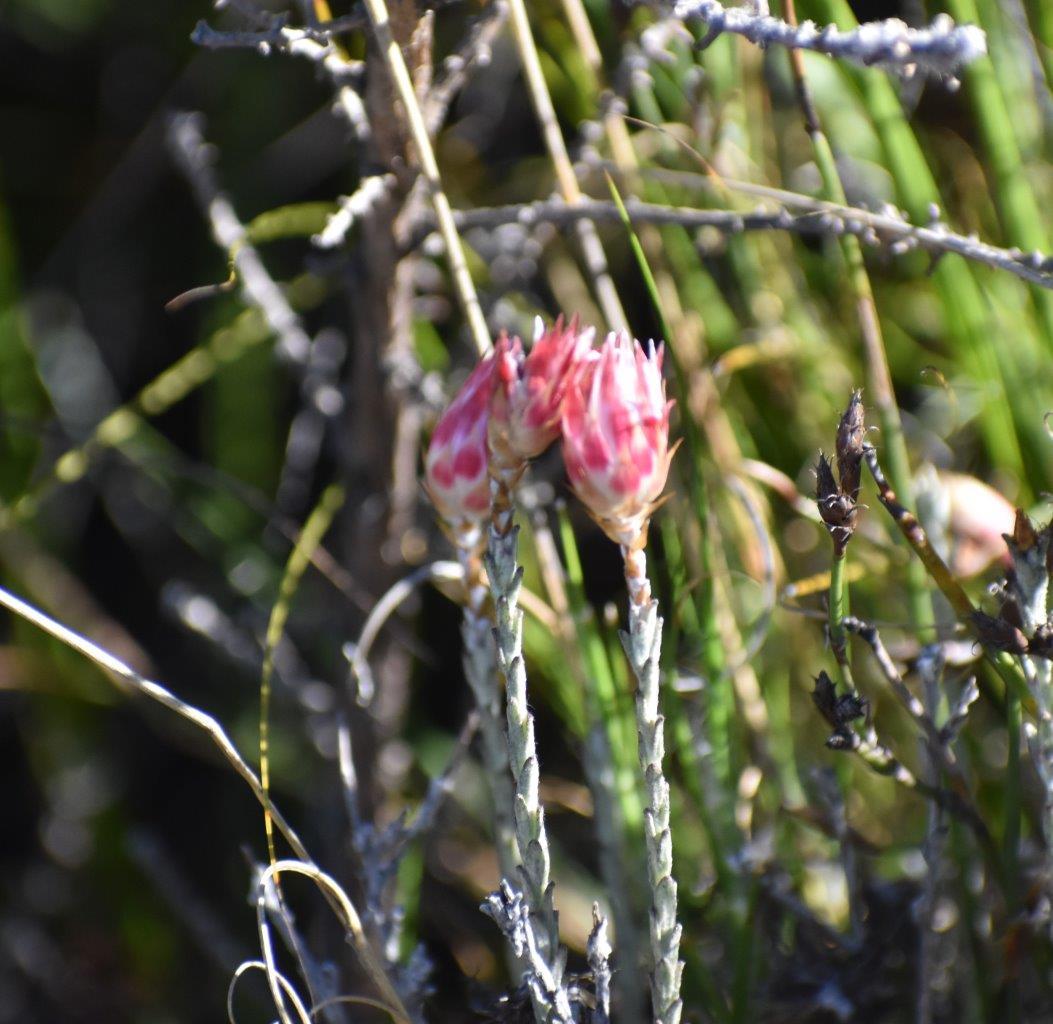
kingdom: Plantae
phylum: Tracheophyta
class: Magnoliopsida
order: Asterales
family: Asteraceae
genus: Syncarpha
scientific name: Syncarpha canescens
